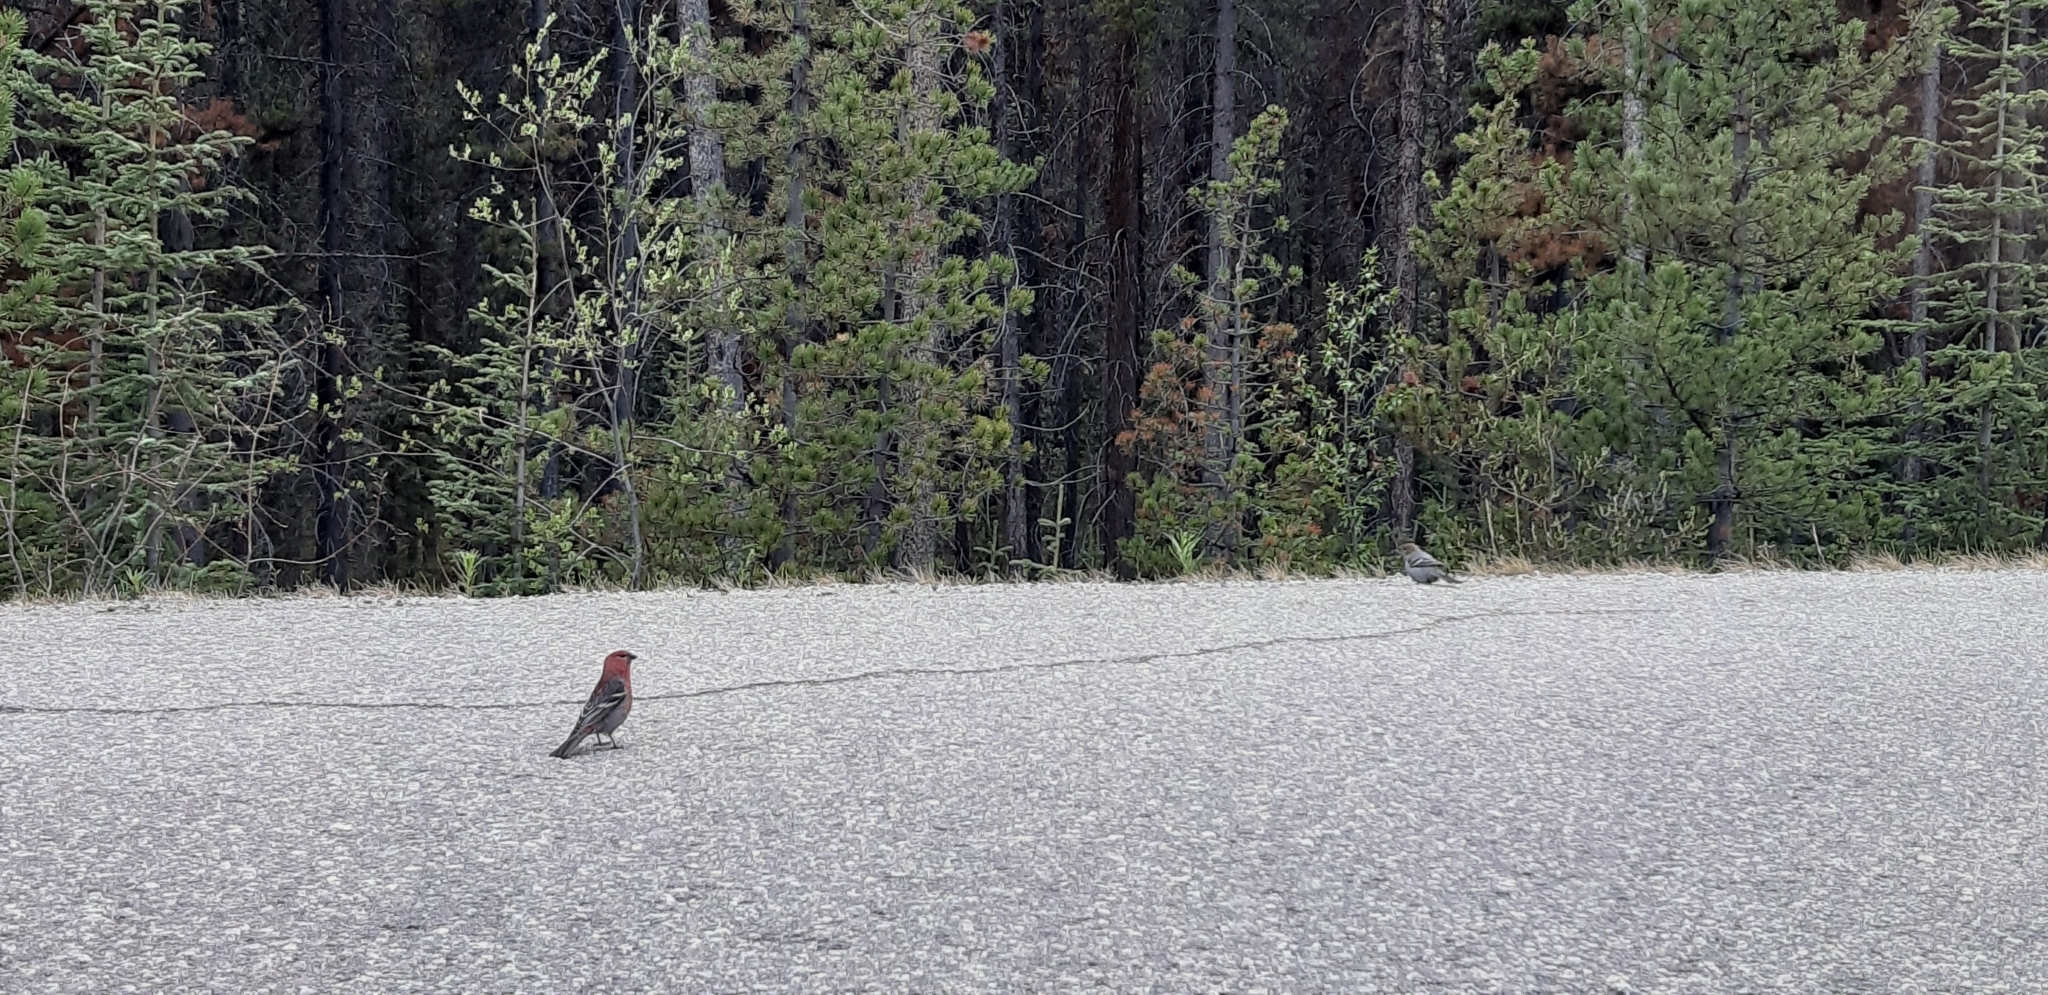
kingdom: Animalia
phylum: Chordata
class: Aves
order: Passeriformes
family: Fringillidae
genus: Pinicola
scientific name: Pinicola enucleator
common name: Pine grosbeak
